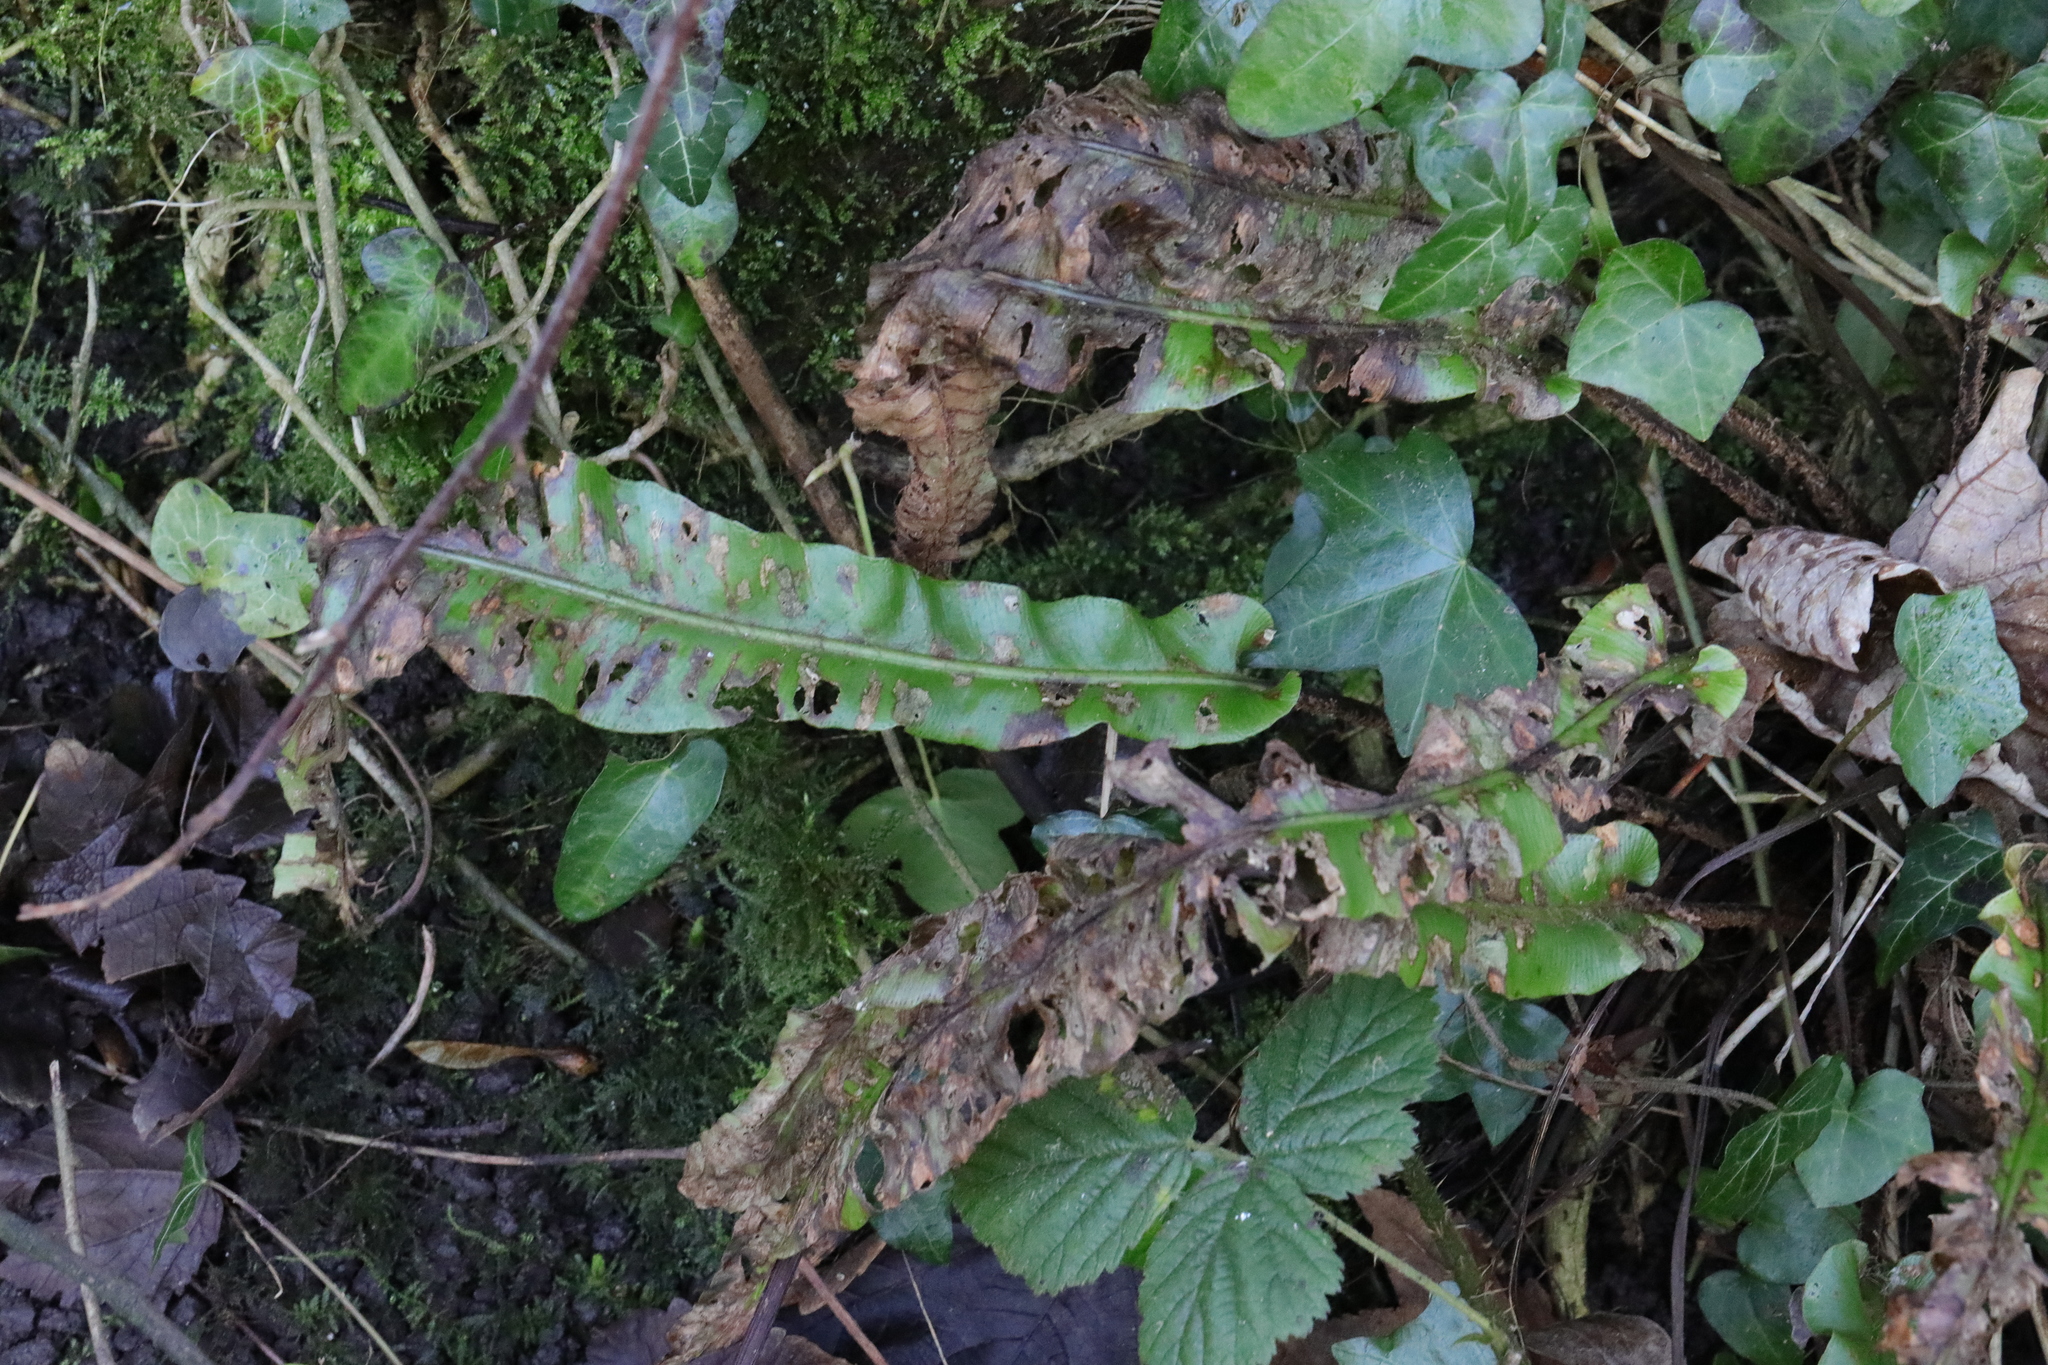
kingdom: Plantae
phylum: Tracheophyta
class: Polypodiopsida
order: Polypodiales
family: Aspleniaceae
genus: Asplenium
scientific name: Asplenium scolopendrium
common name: Hart's-tongue fern
